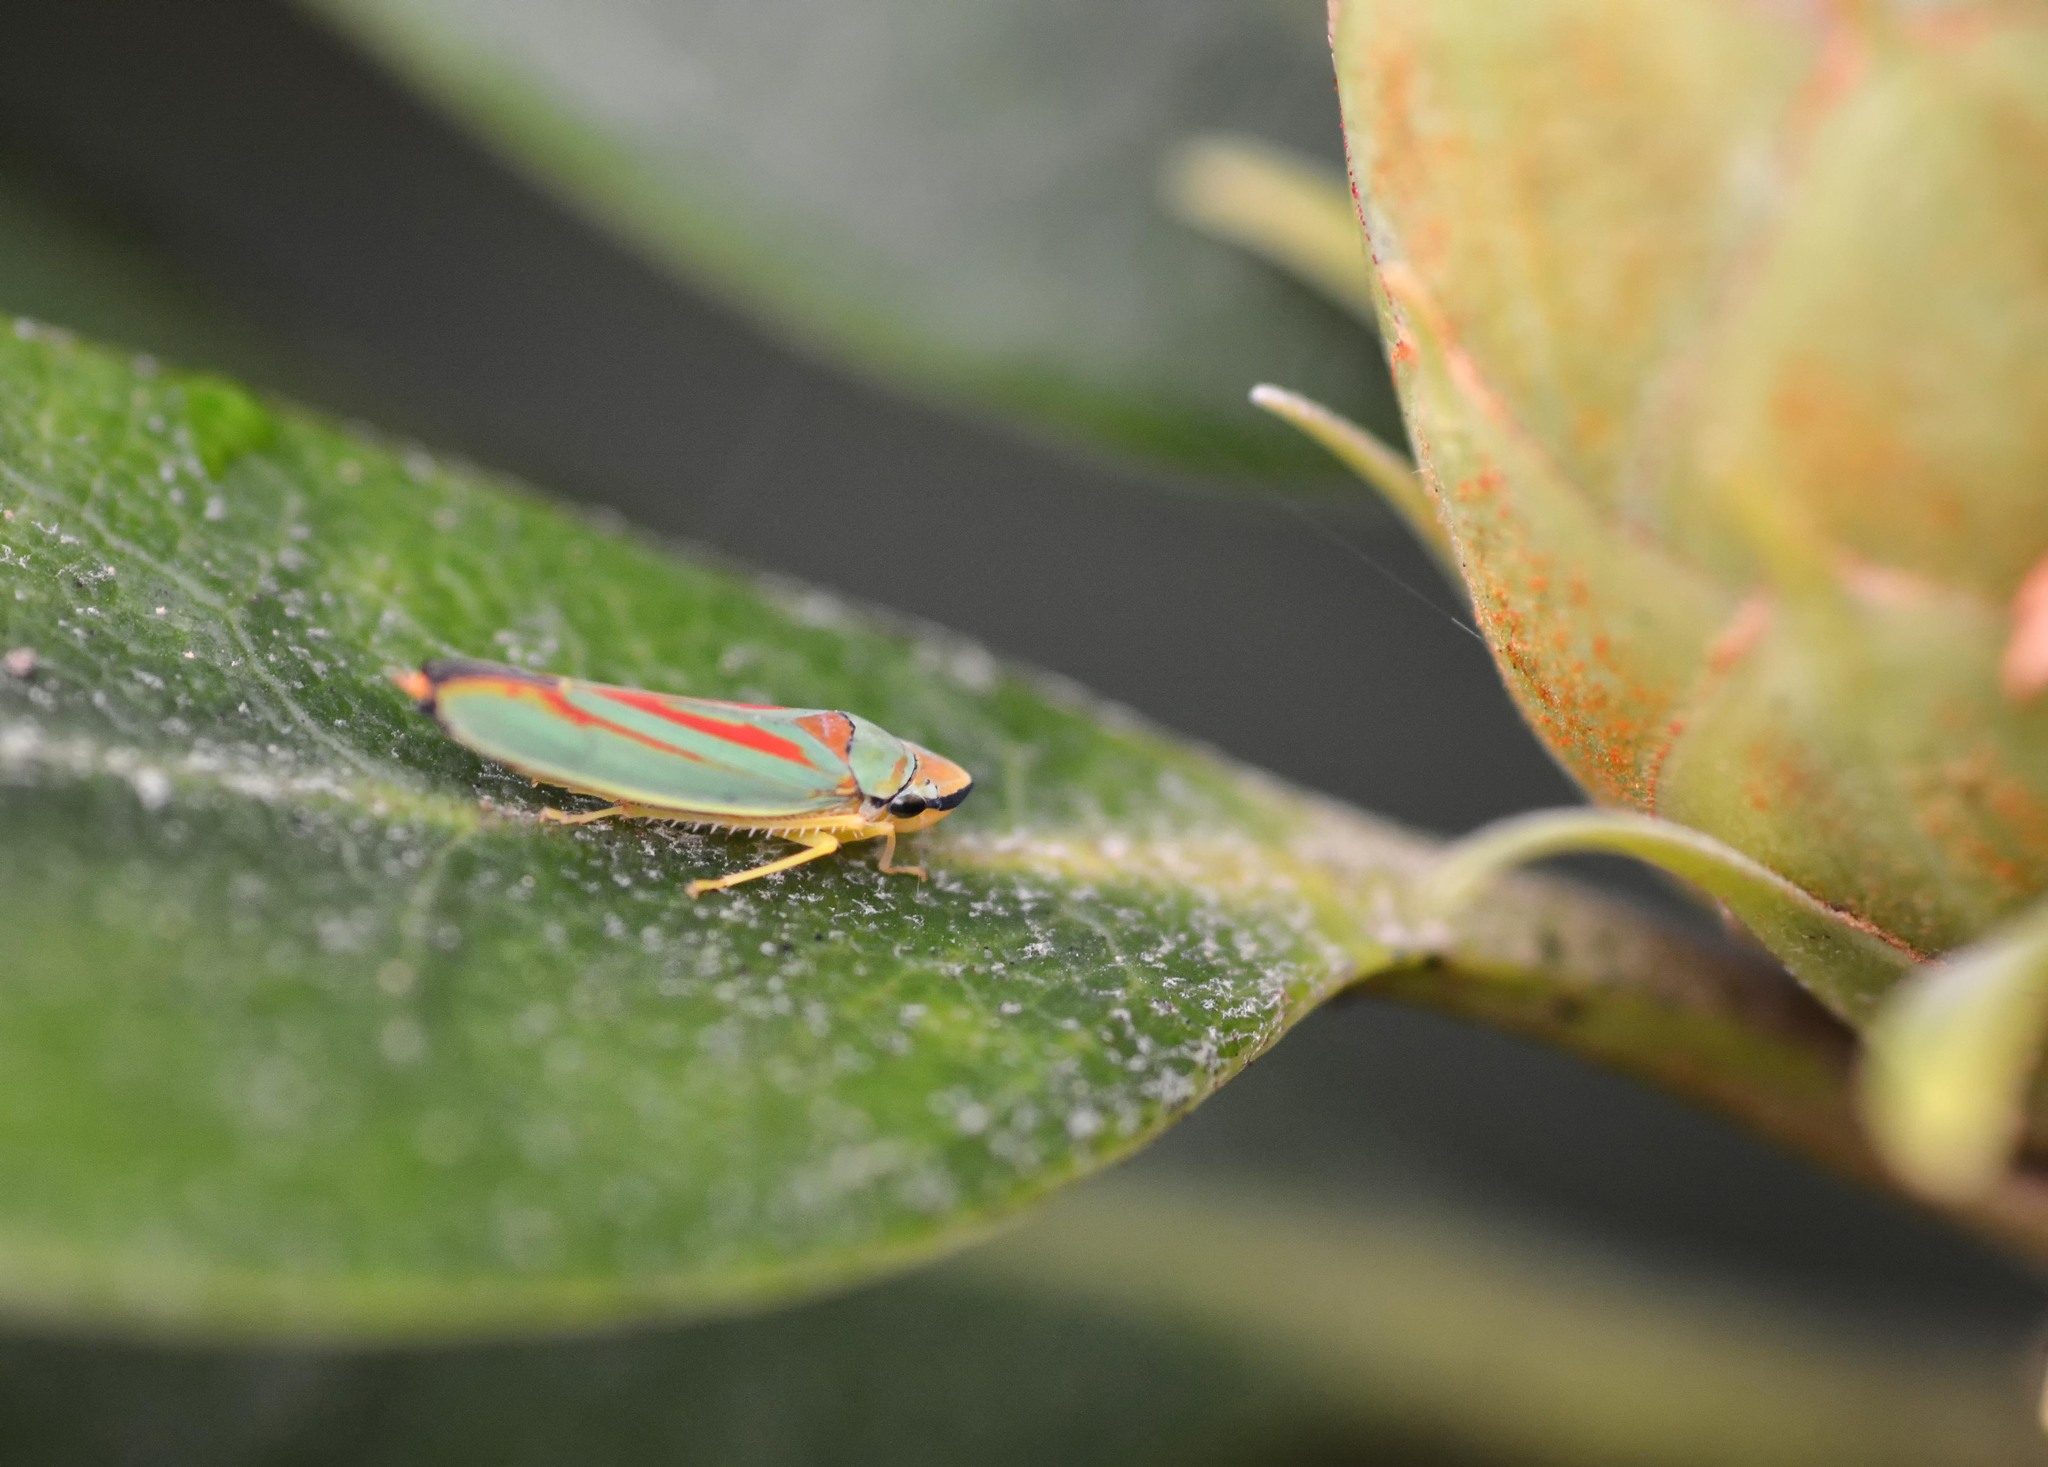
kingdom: Animalia
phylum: Arthropoda
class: Insecta
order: Hemiptera
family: Cicadellidae
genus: Graphocephala
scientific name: Graphocephala fennahi
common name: Rhododendron leafhopper
